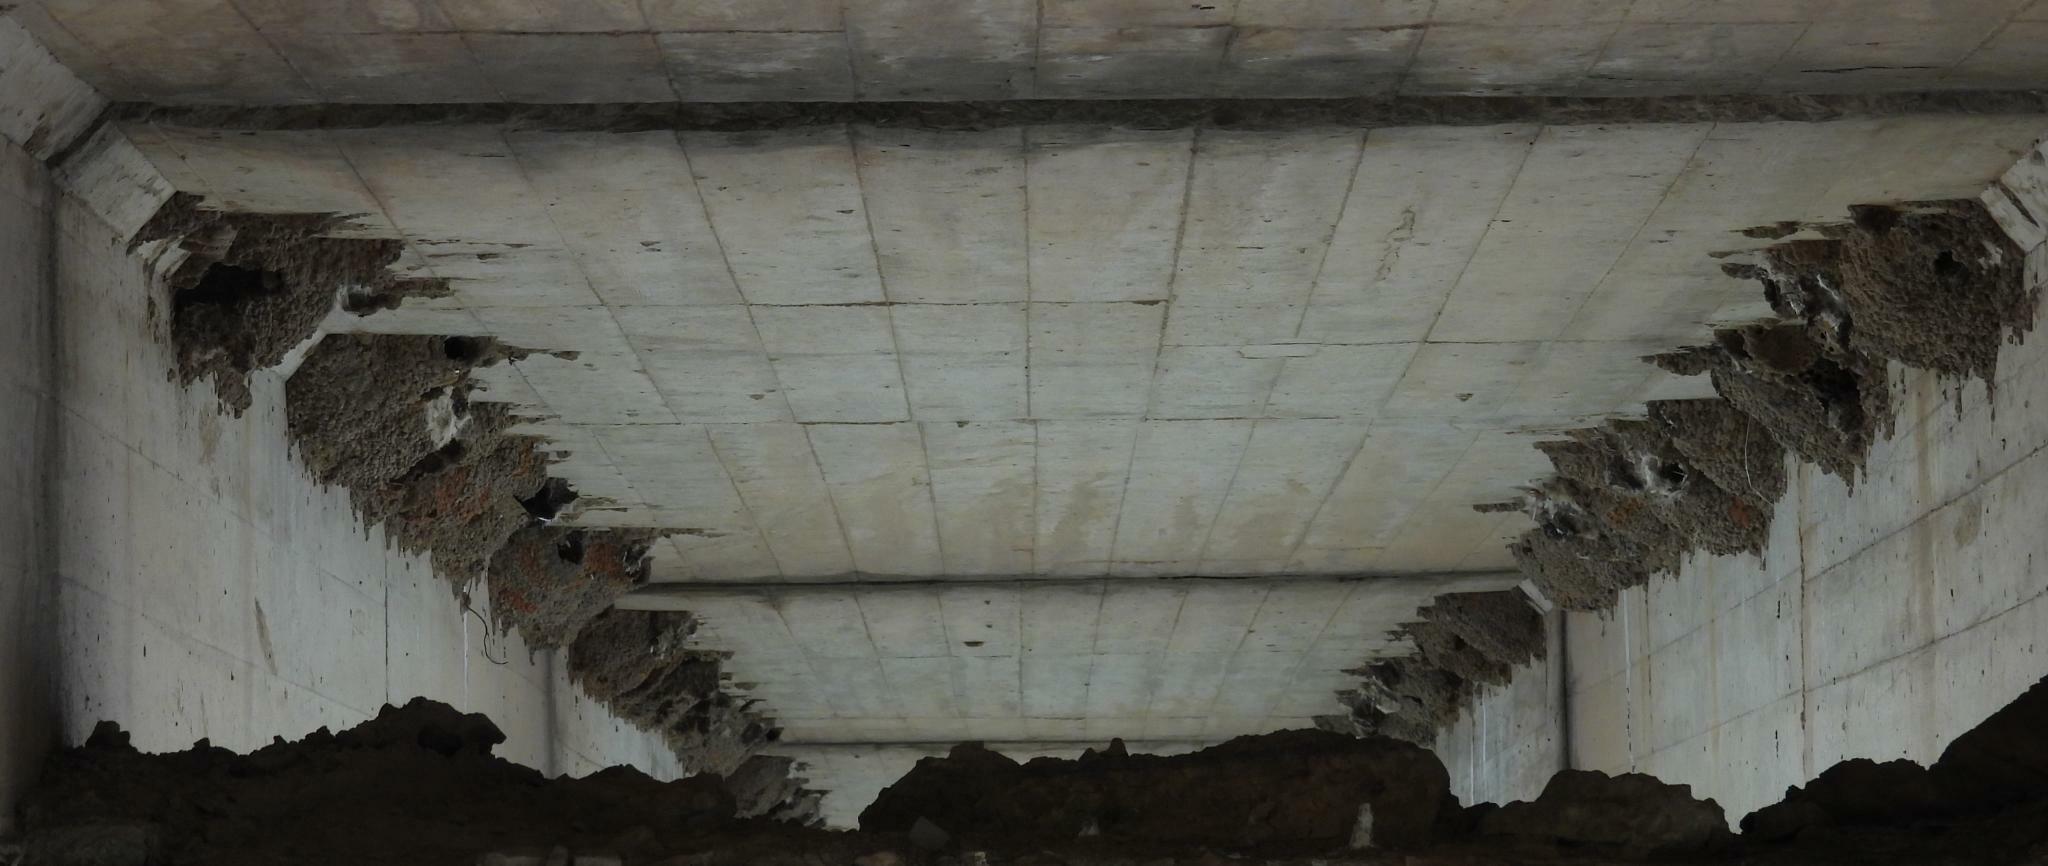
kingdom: Animalia
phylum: Chordata
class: Aves
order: Apodiformes
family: Apodidae
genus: Apus
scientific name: Apus affinis
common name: Little swift
